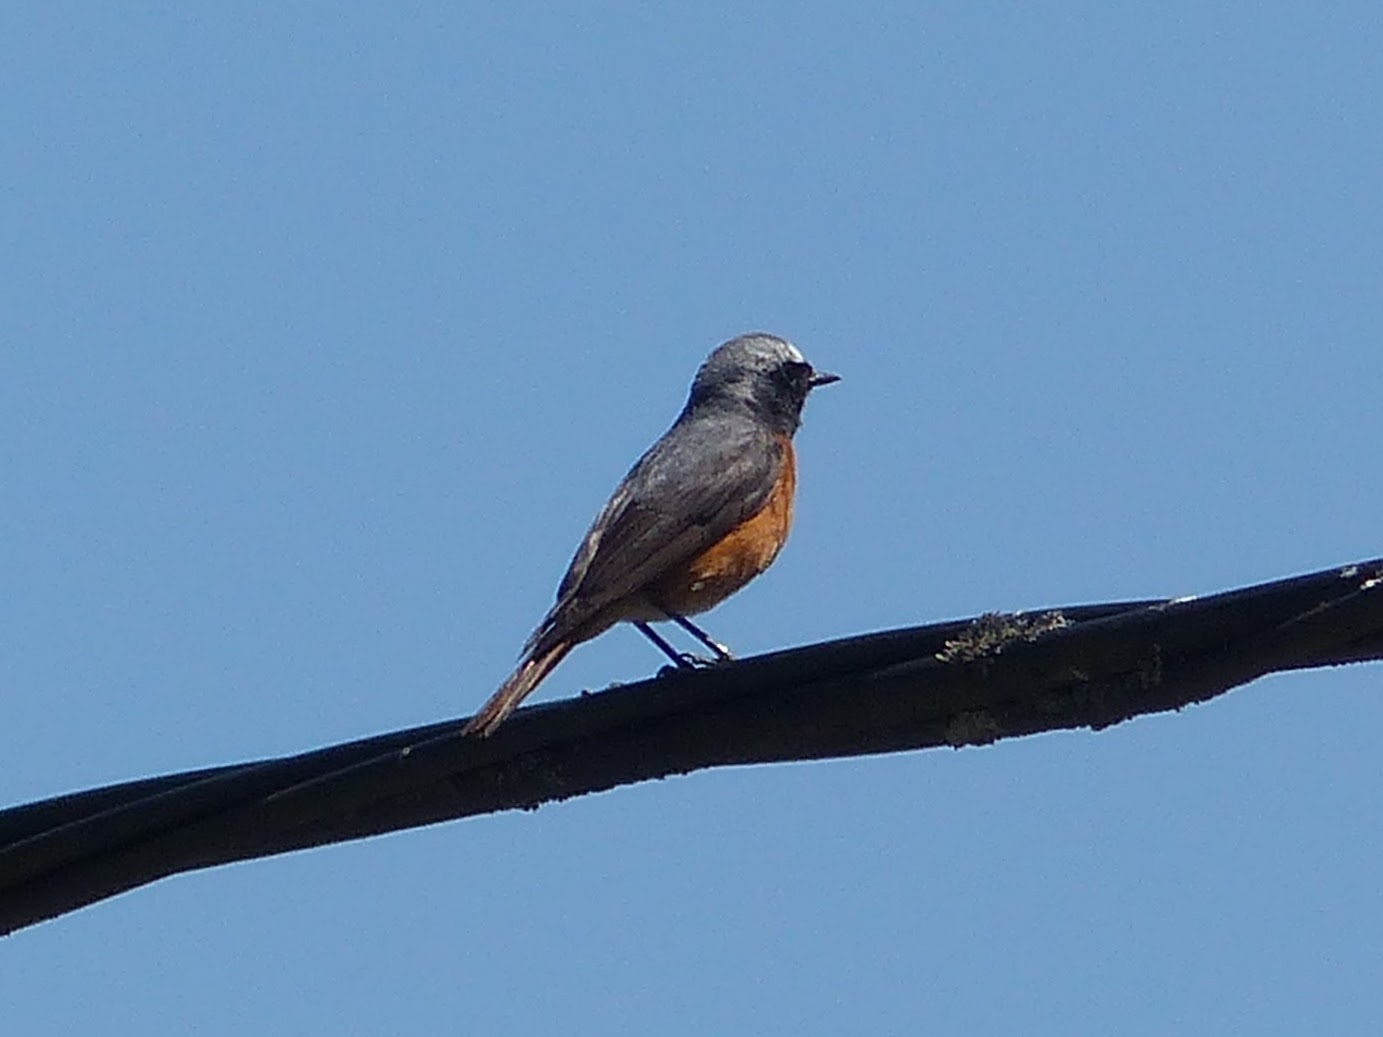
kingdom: Animalia
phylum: Chordata
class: Aves
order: Passeriformes
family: Muscicapidae
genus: Phoenicurus
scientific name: Phoenicurus phoenicurus
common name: Common redstart
